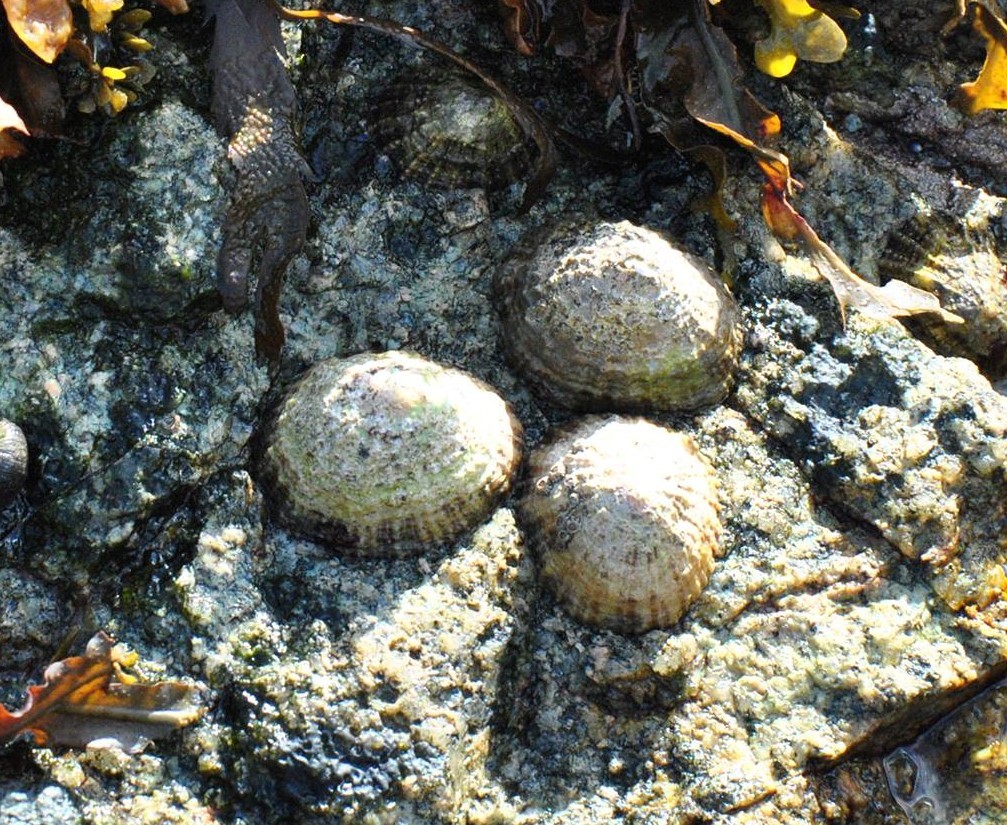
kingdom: Animalia
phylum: Mollusca
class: Gastropoda
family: Patellidae
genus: Patella
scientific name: Patella vulgata
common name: Common limpet
